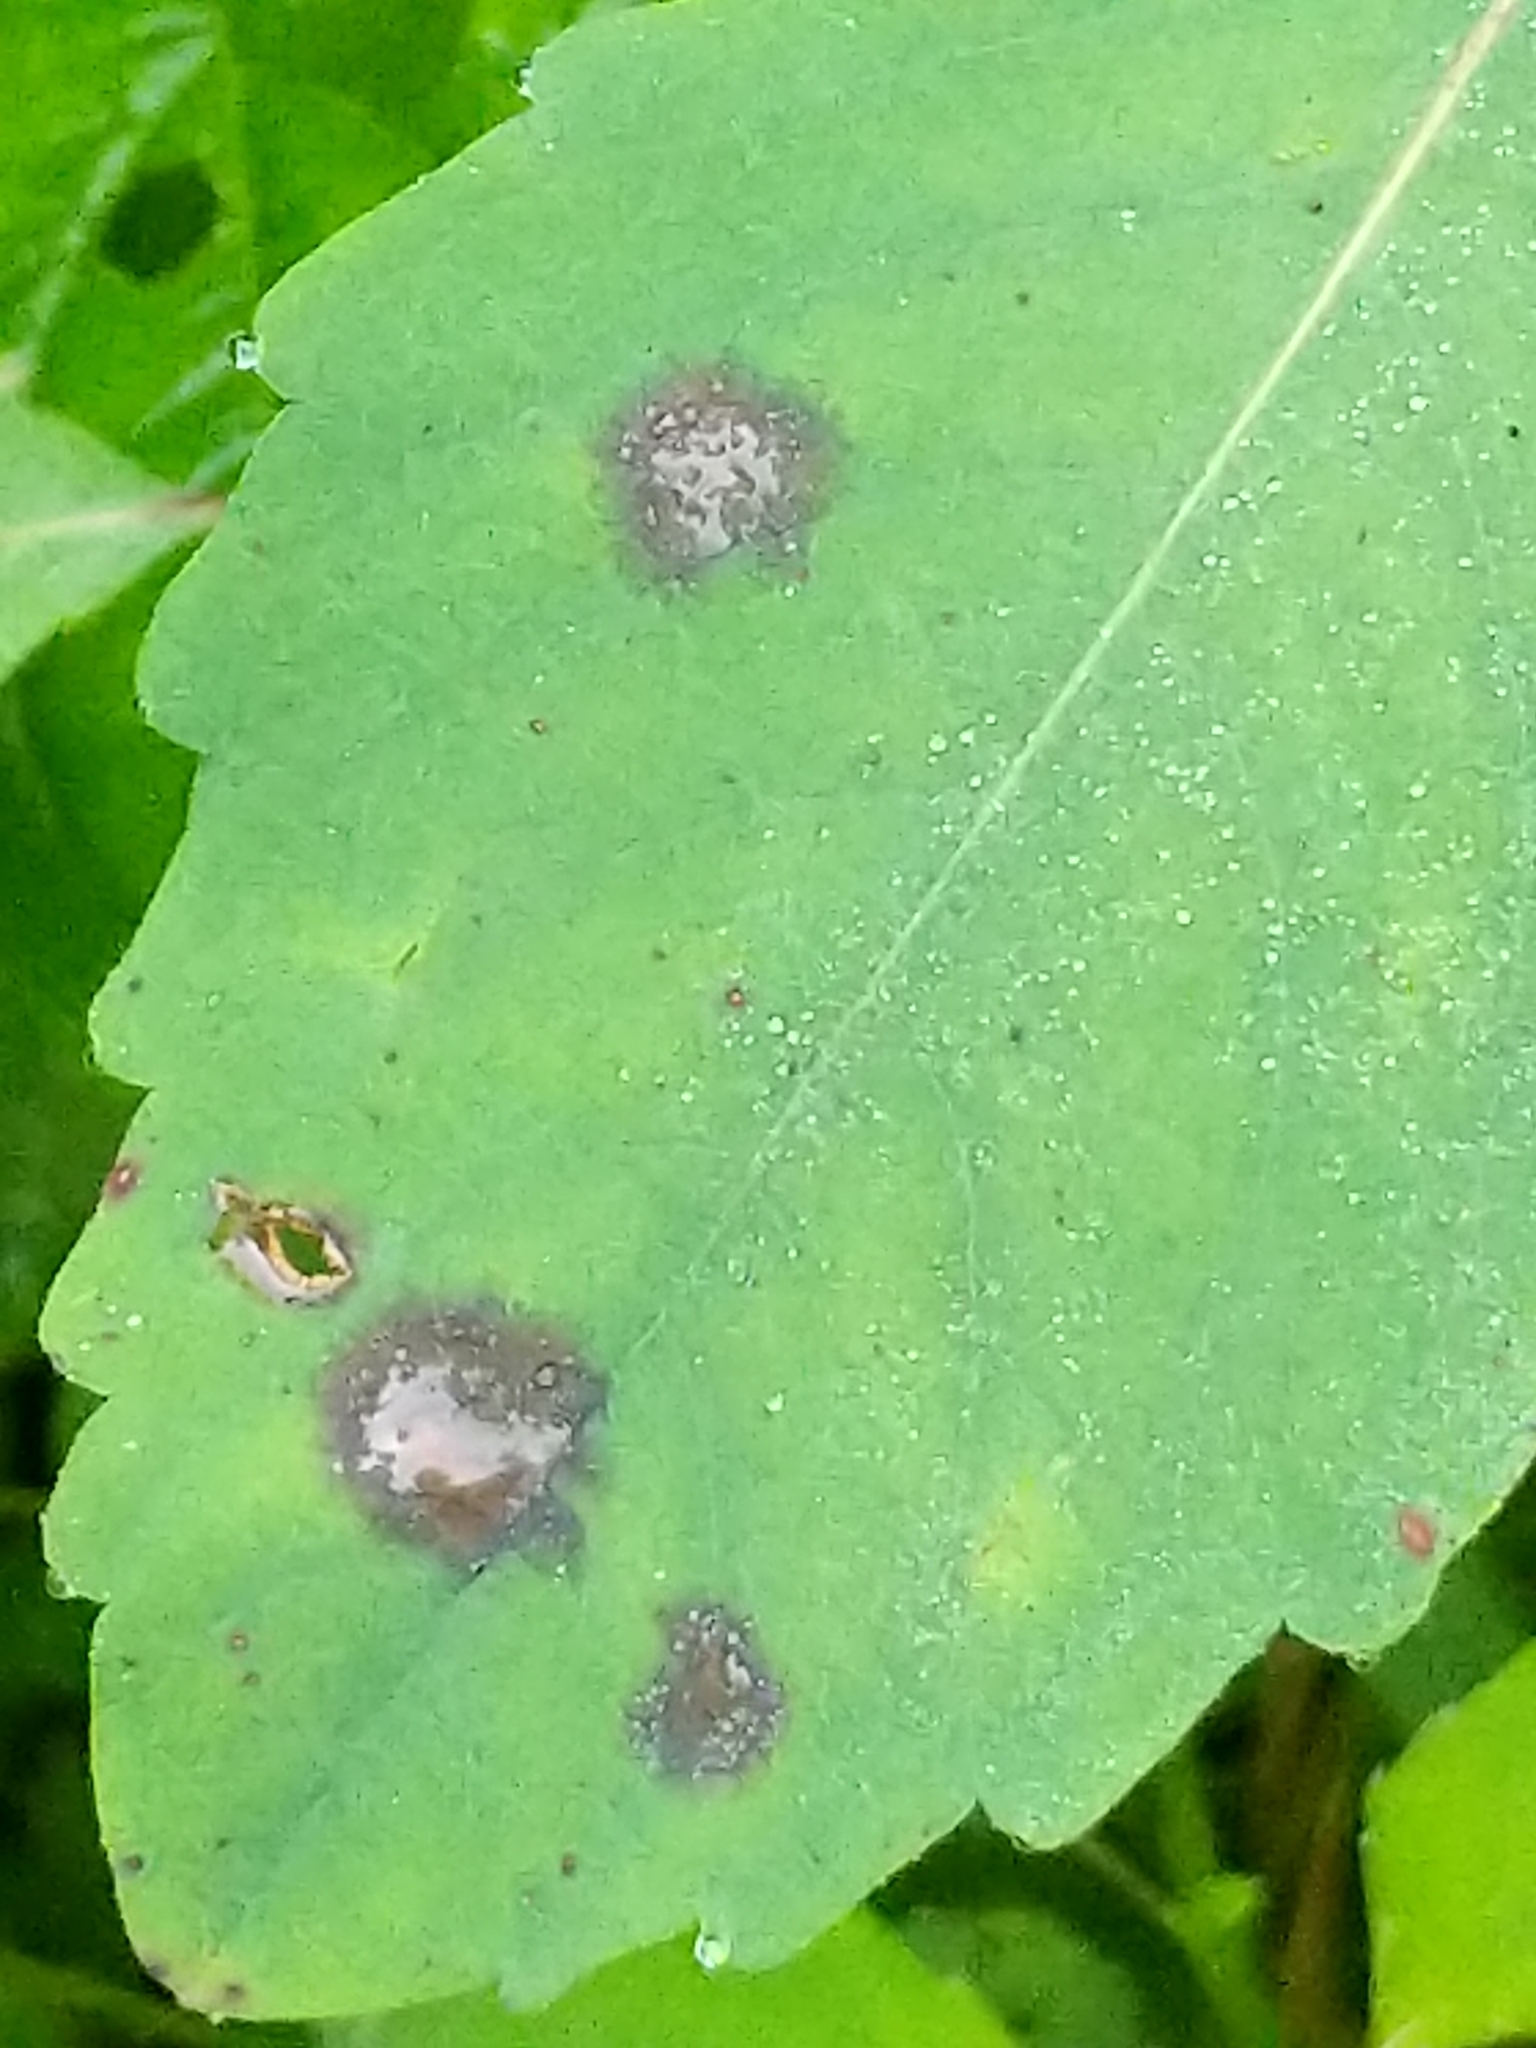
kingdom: Fungi
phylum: Ascomycota
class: Dothideomycetes
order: Mycosphaerellales
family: Mycosphaerellaceae
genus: Mycosphaerella
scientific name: Mycosphaerella impatientis
